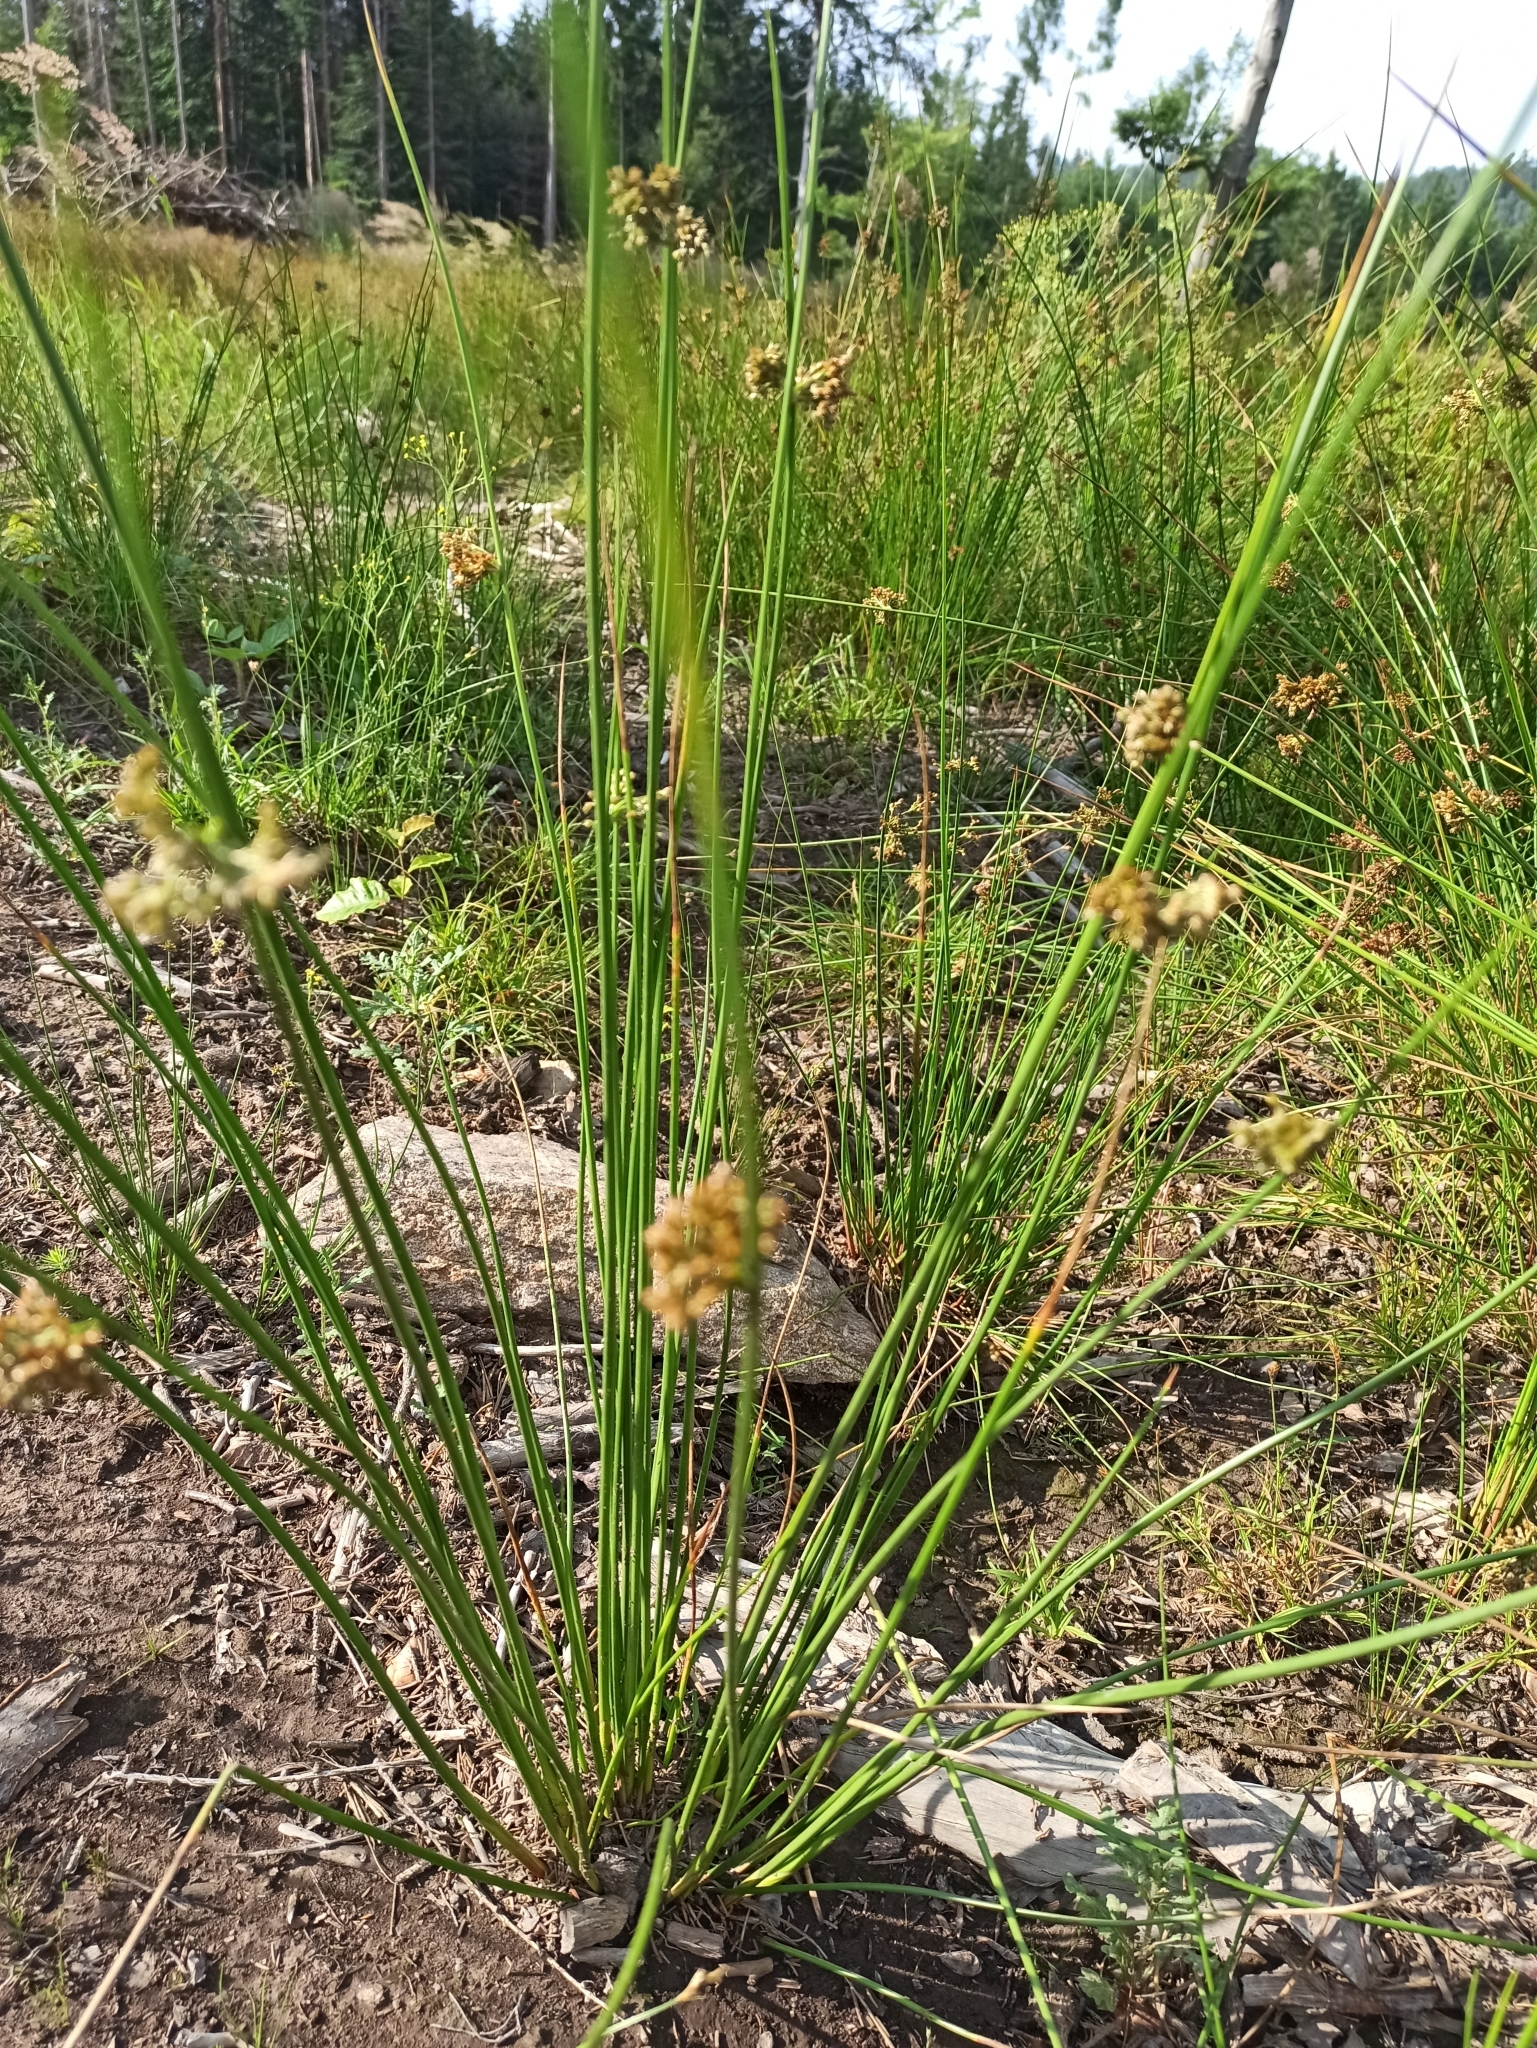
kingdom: Plantae
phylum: Tracheophyta
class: Liliopsida
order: Poales
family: Juncaceae
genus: Juncus
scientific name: Juncus effusus
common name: Soft rush
